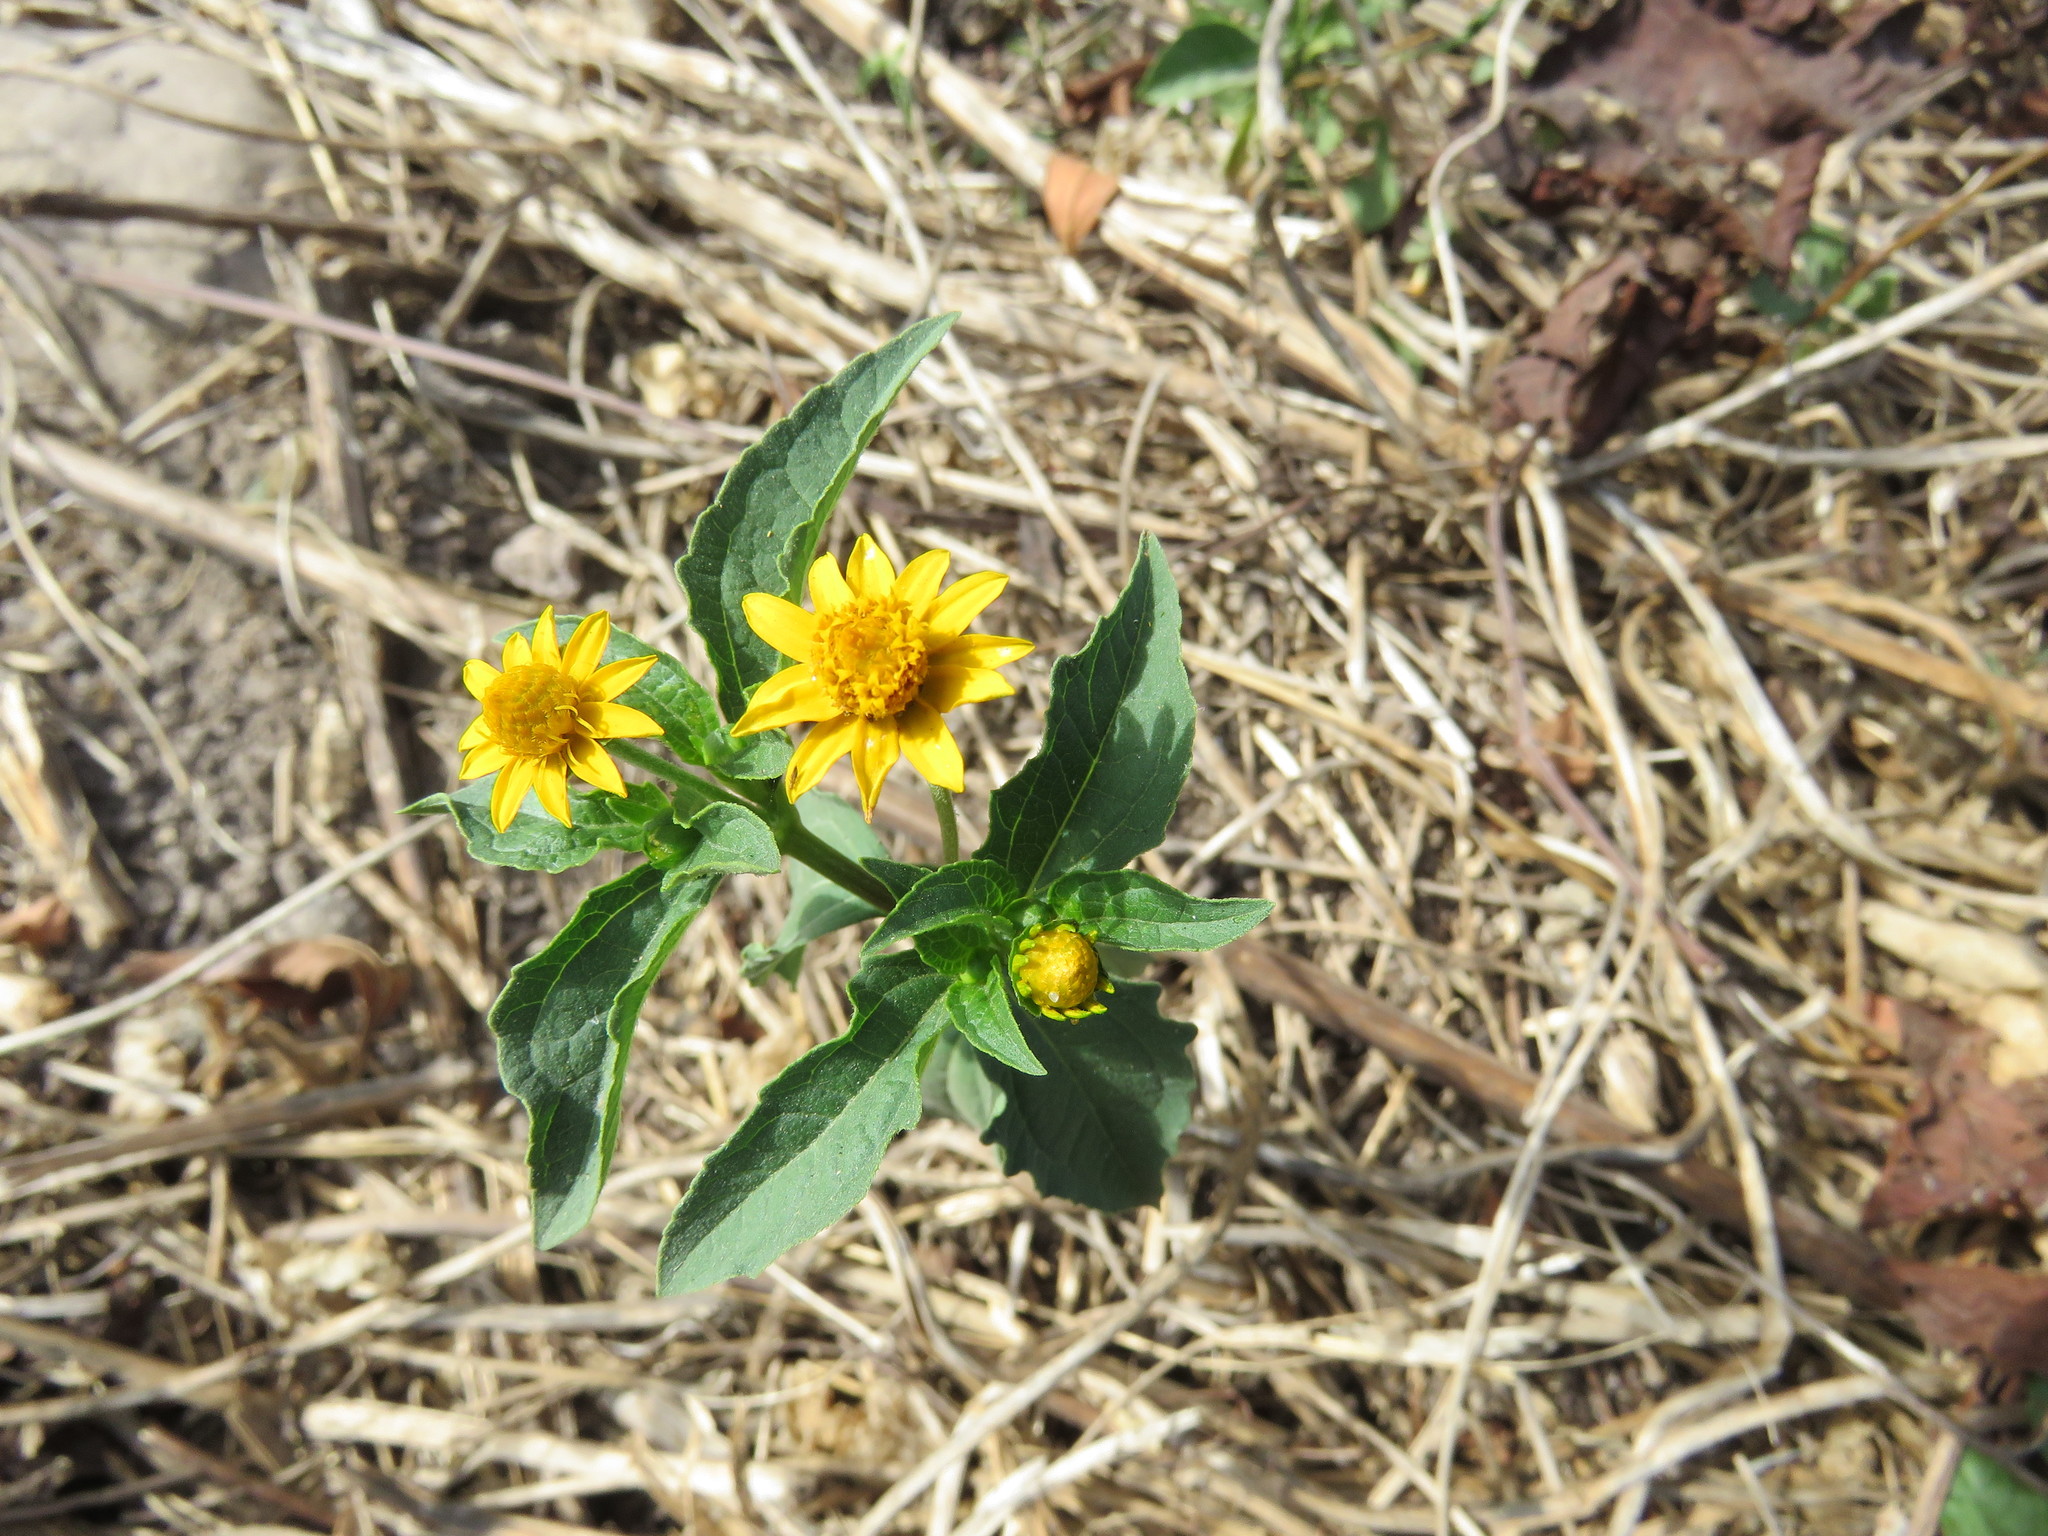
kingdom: Plantae
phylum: Tracheophyta
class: Magnoliopsida
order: Asterales
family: Asteraceae
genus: Melampodium
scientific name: Melampodium divaricatum
